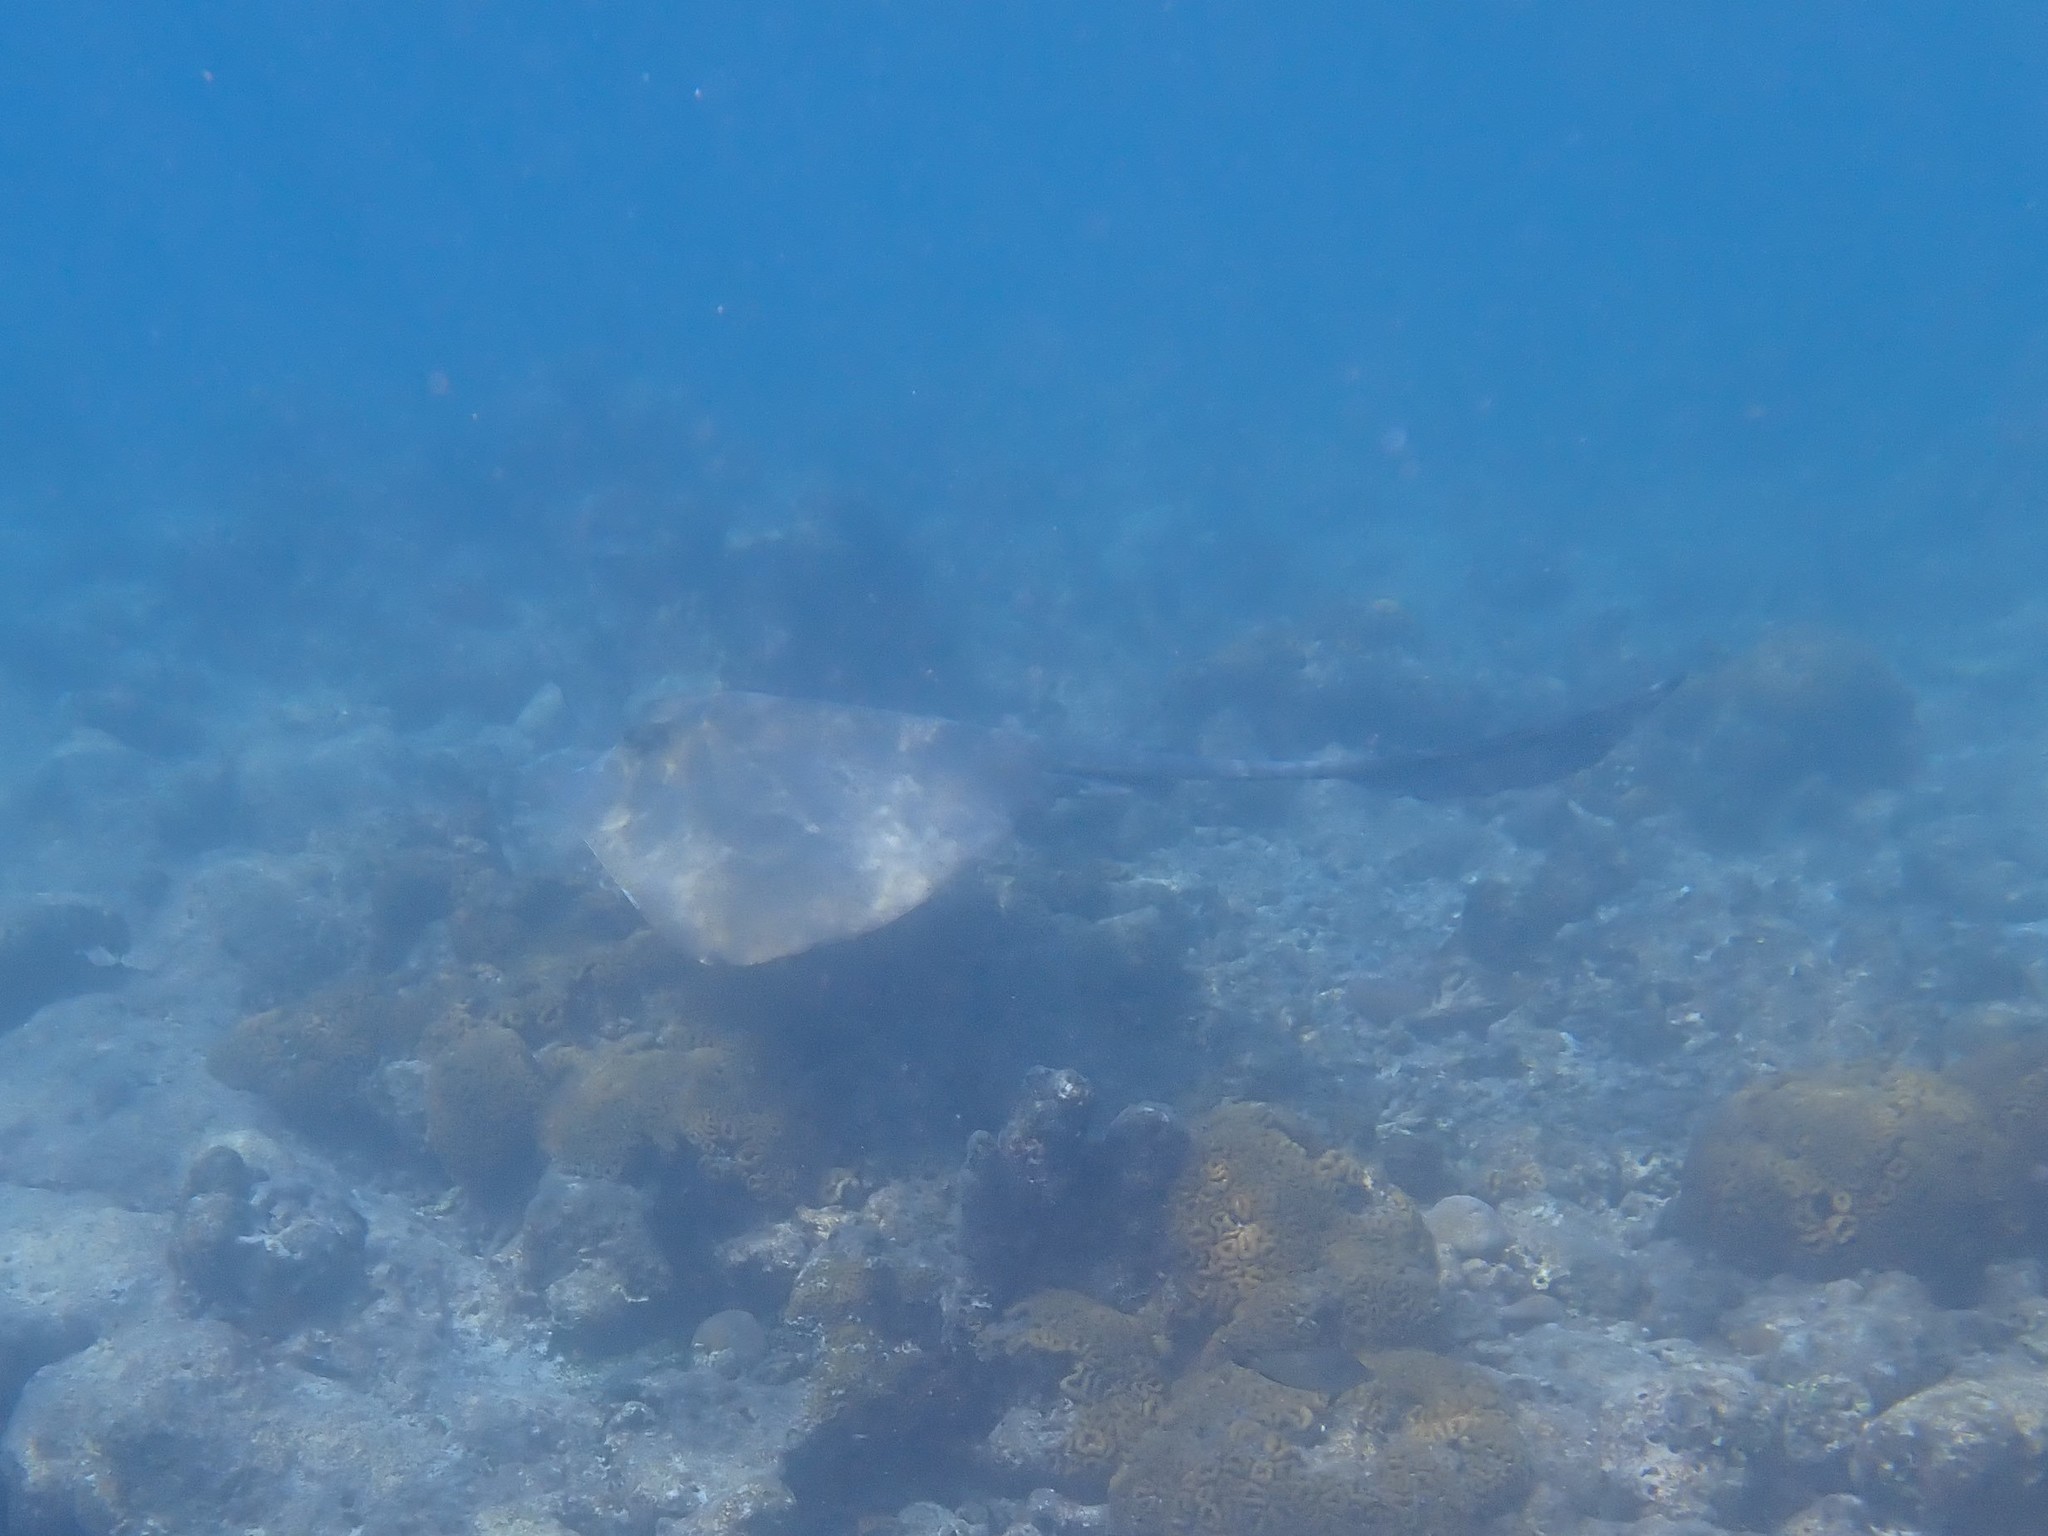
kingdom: Animalia
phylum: Chordata
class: Elasmobranchii
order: Myliobatiformes
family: Dasyatidae
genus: Pastinachus
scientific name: Pastinachus ater
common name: Banana-tail ray
